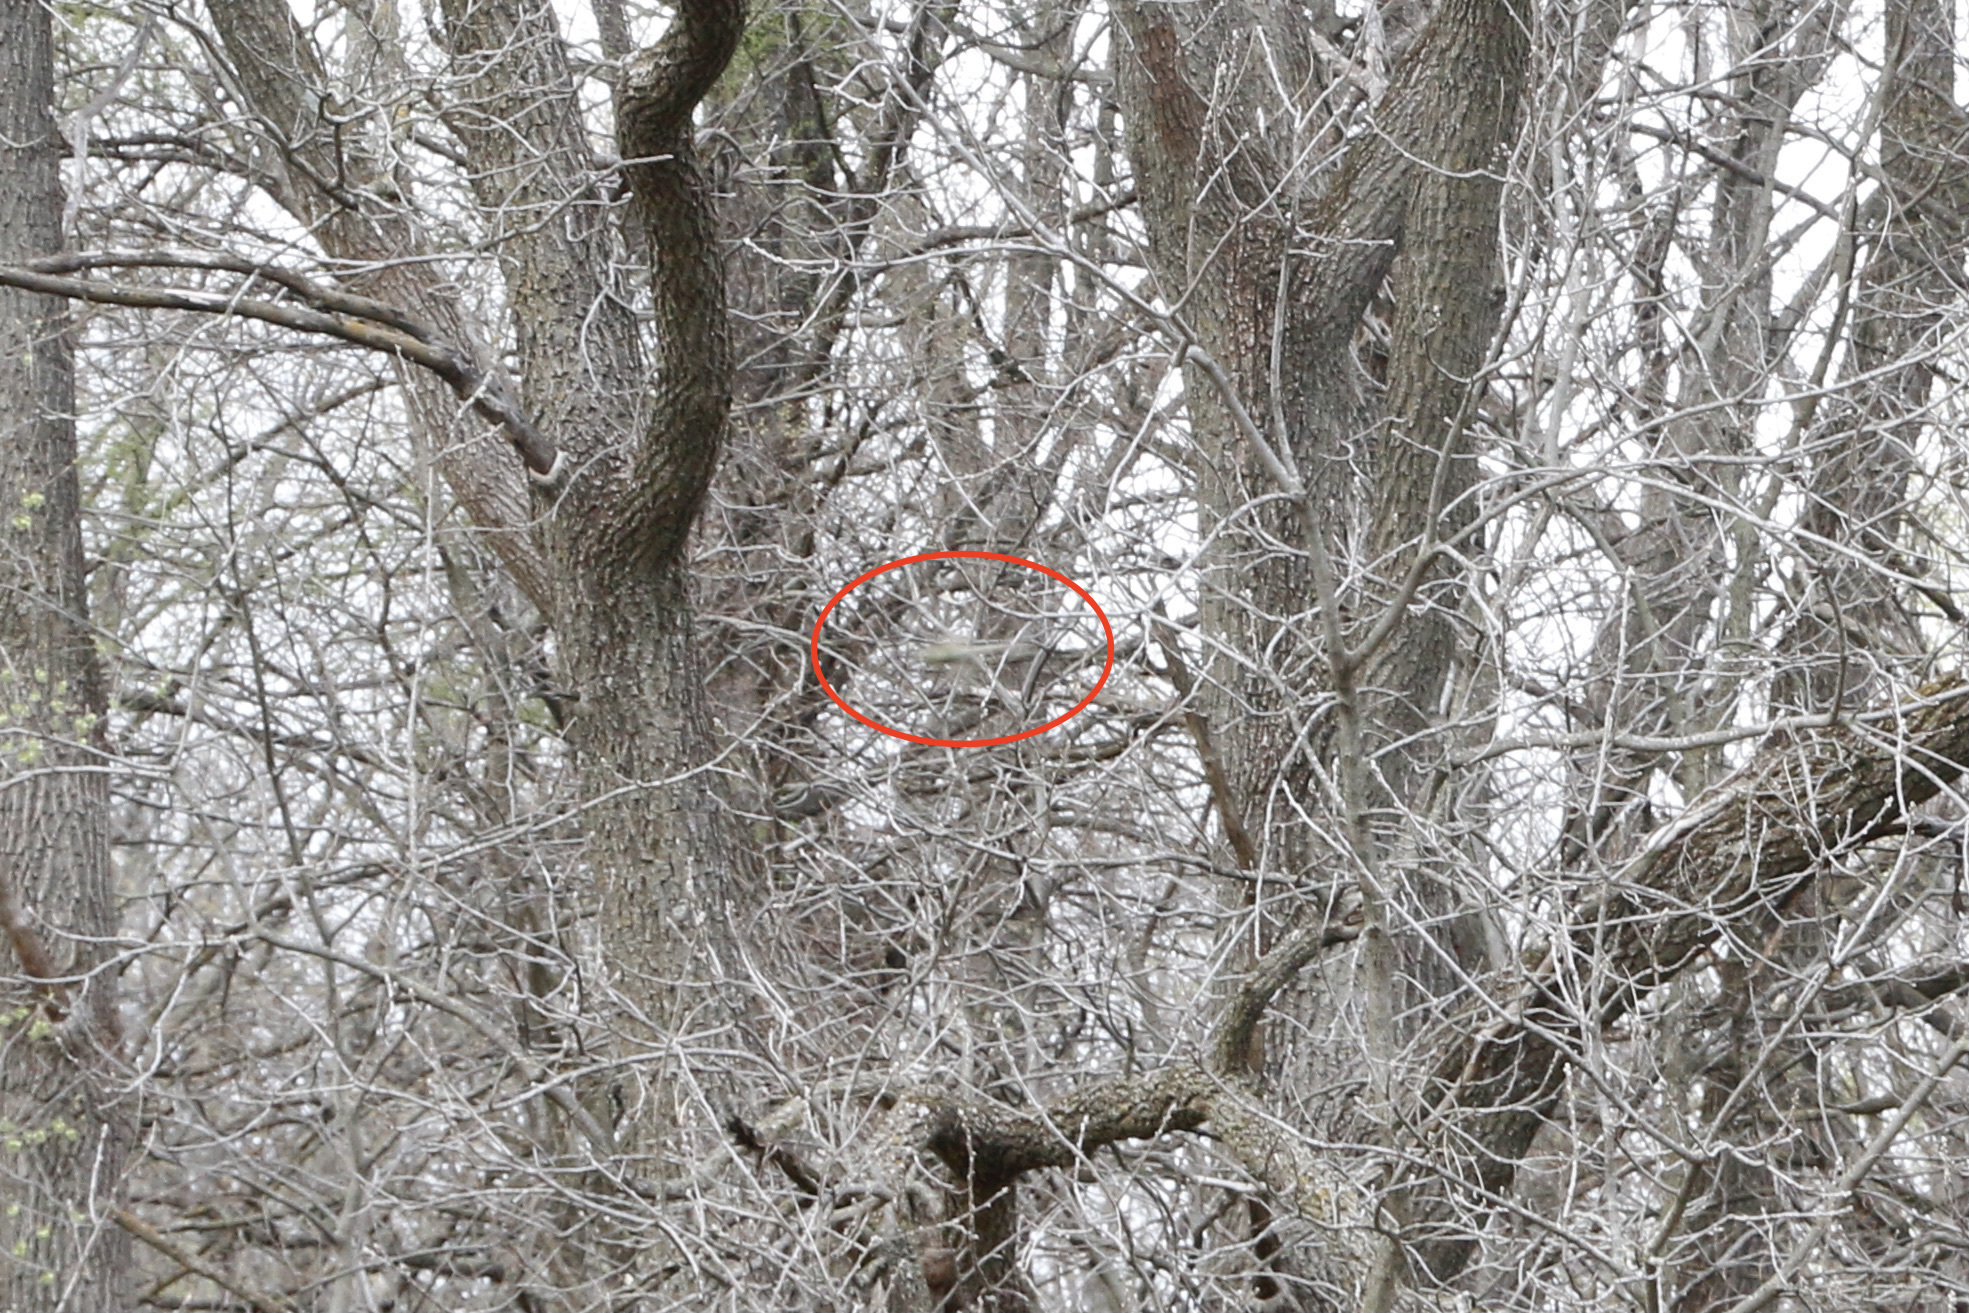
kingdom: Animalia
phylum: Arthropoda
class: Insecta
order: Odonata
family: Aeshnidae
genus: Anax
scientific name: Anax junius
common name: Common green darner
